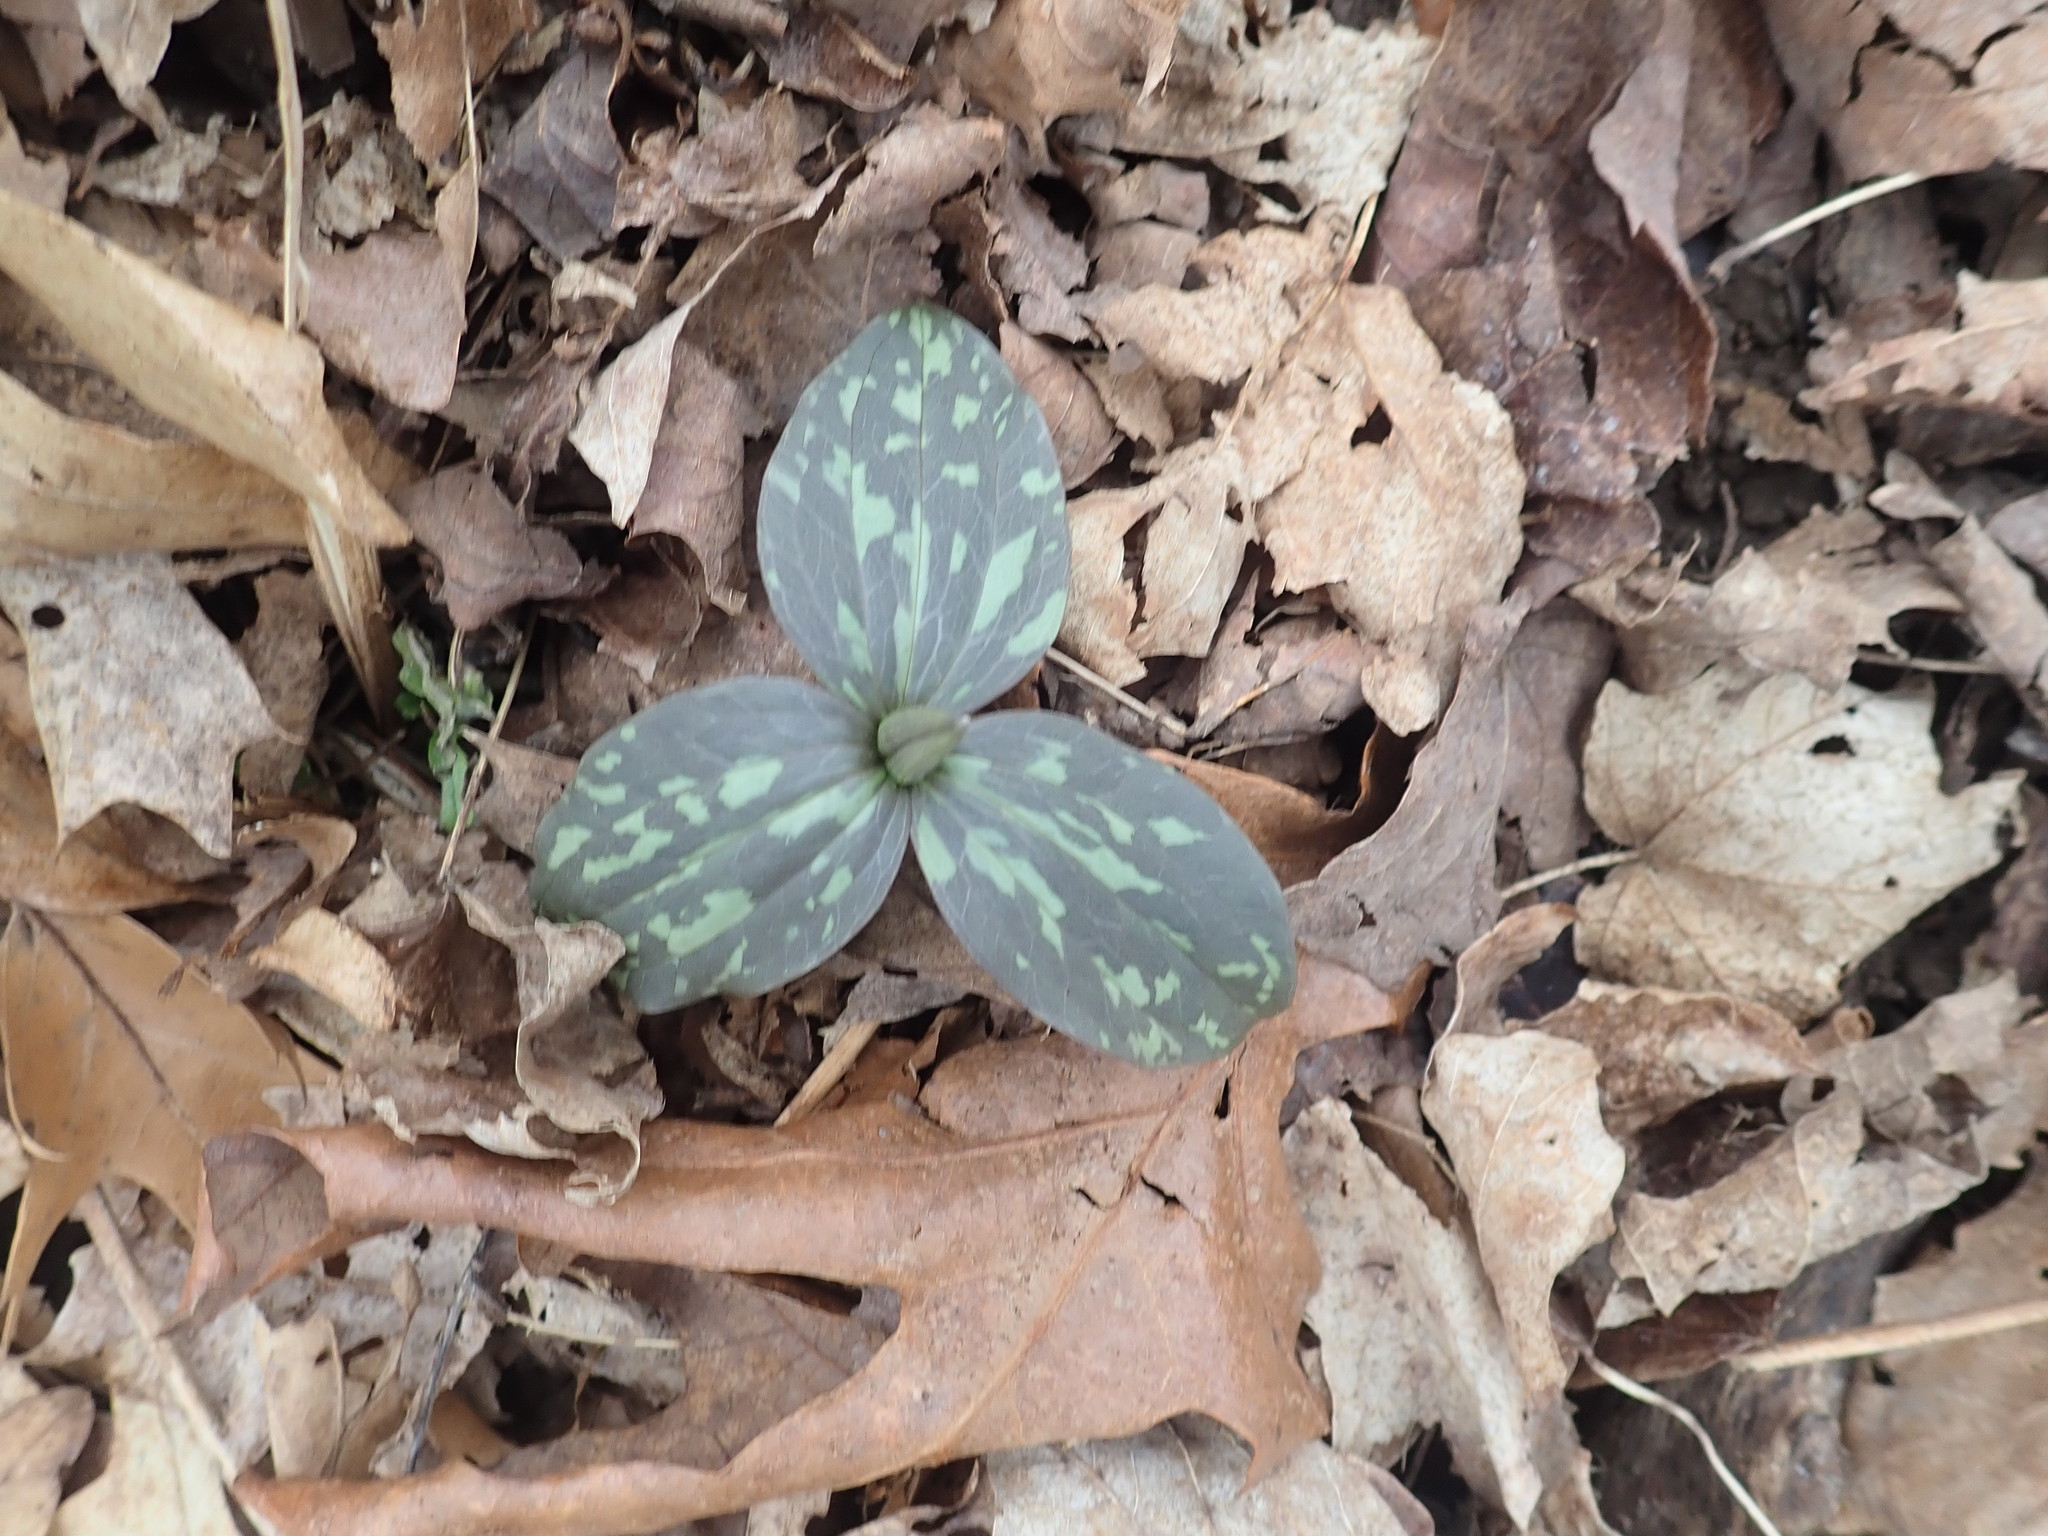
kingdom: Plantae
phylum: Tracheophyta
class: Liliopsida
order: Liliales
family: Melanthiaceae
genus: Trillium
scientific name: Trillium recurvatum
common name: Bloody butcher
